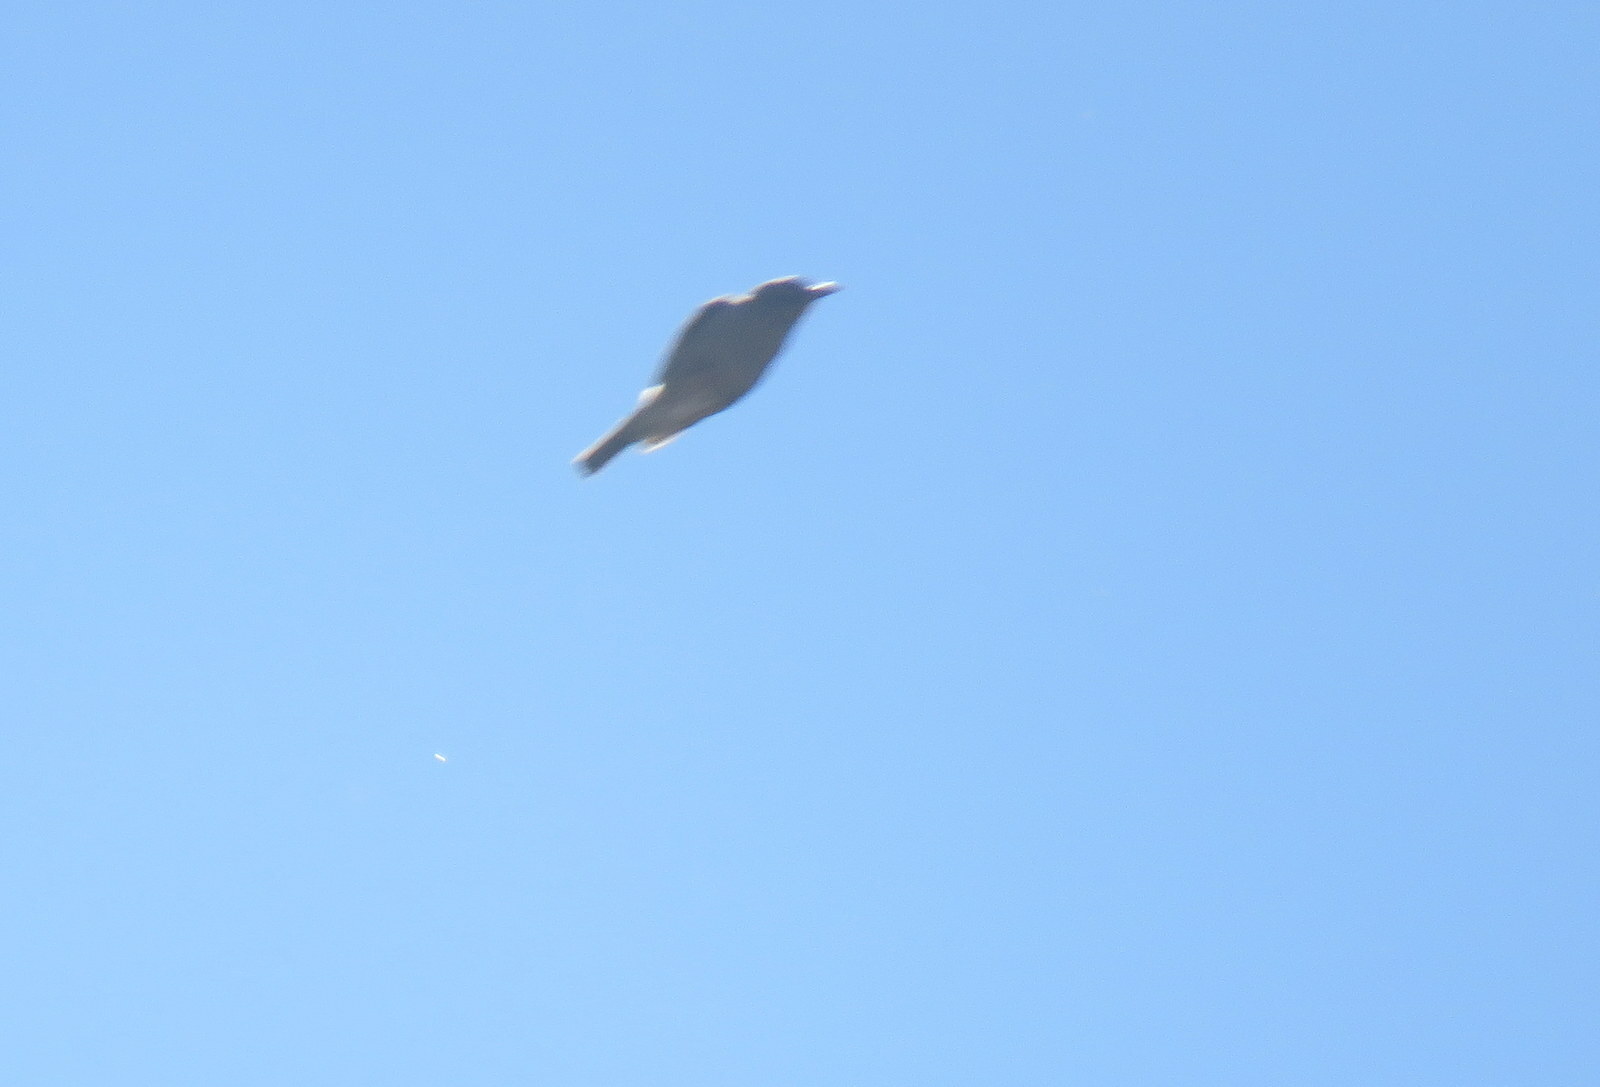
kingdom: Animalia
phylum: Chordata
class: Aves
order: Passeriformes
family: Thraupidae
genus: Idiopsar
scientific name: Idiopsar brachyurus
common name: Short-tailed finch
